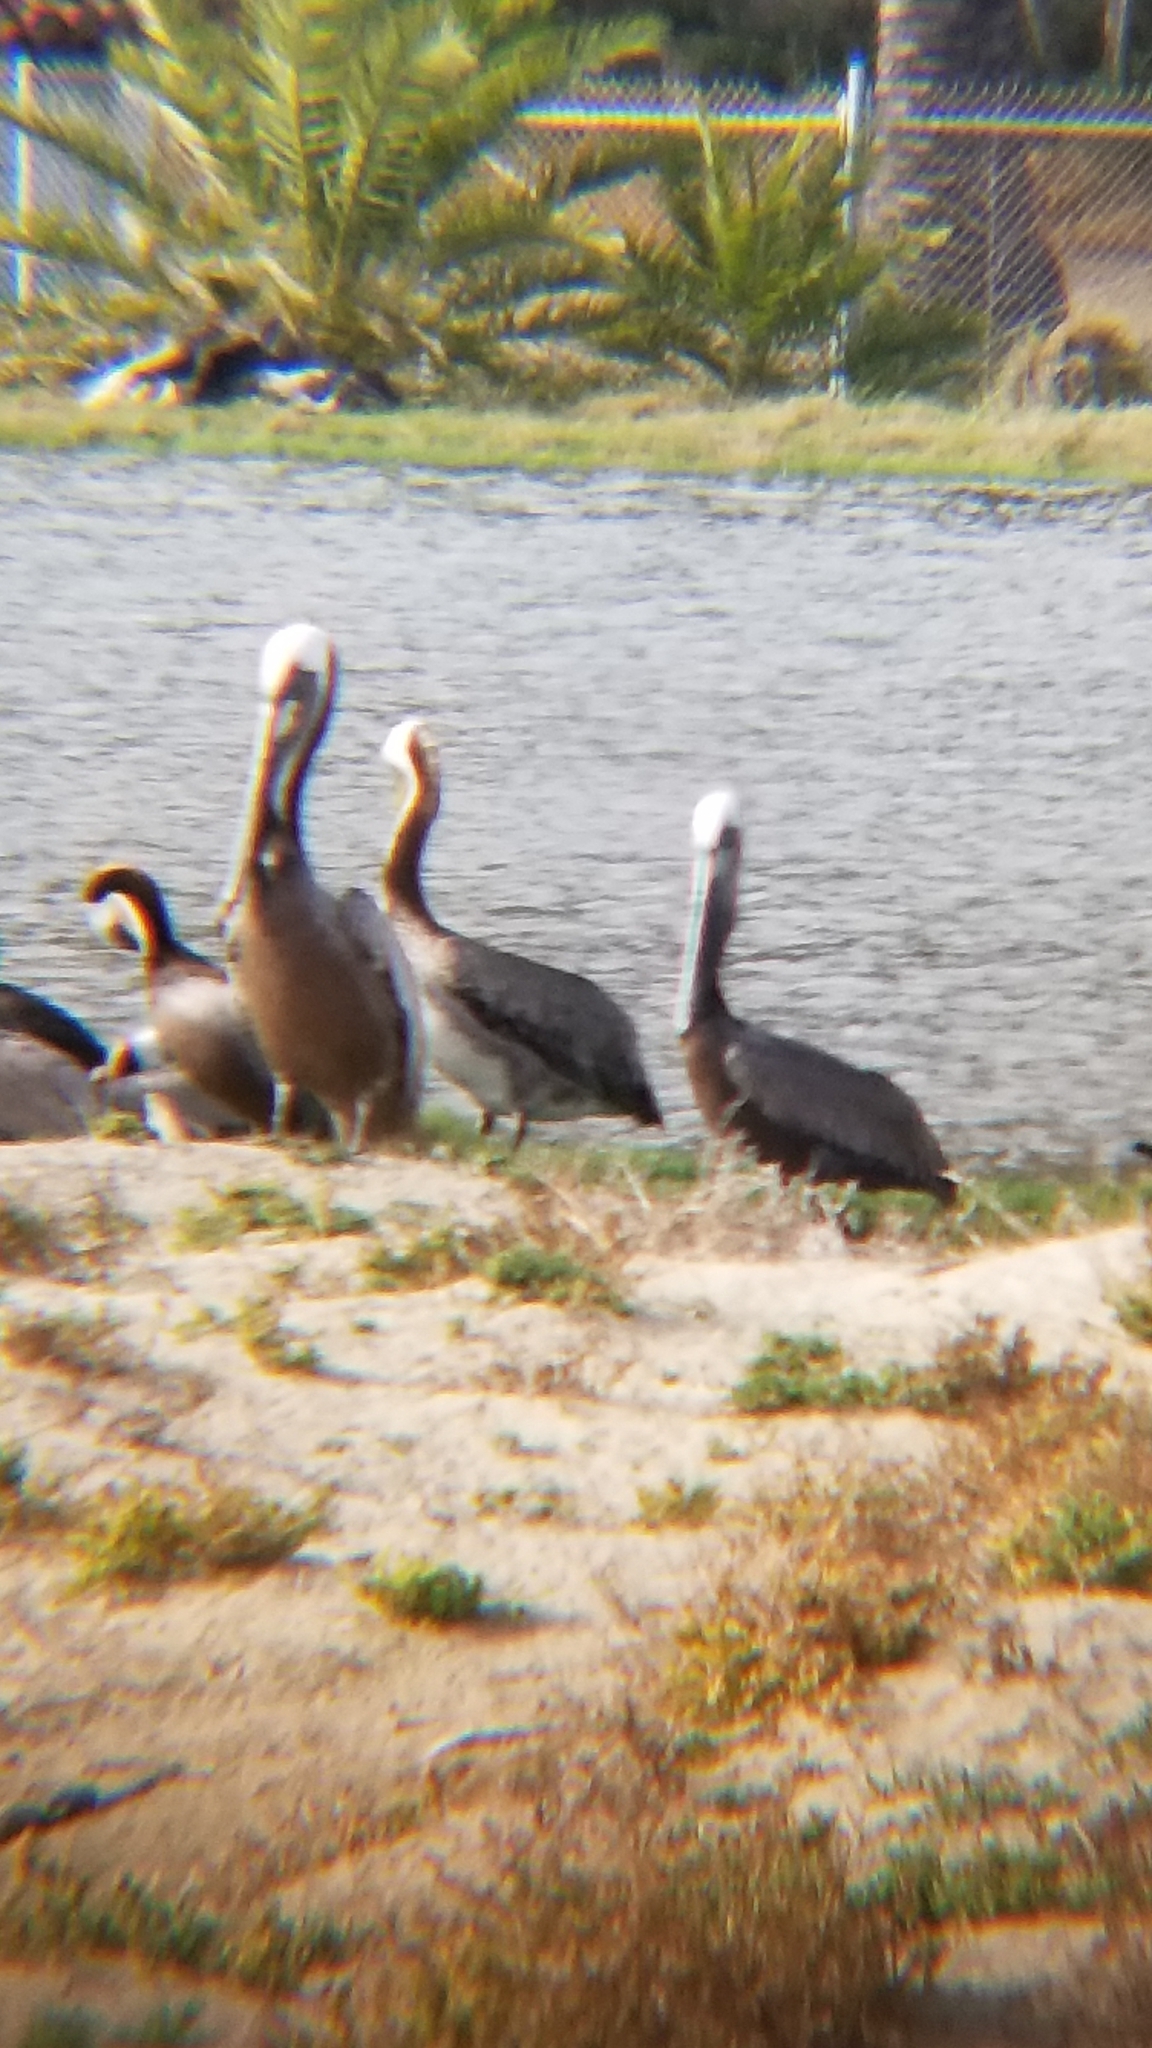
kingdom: Animalia
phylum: Chordata
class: Aves
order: Pelecaniformes
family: Pelecanidae
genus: Pelecanus
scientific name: Pelecanus occidentalis
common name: Brown pelican
